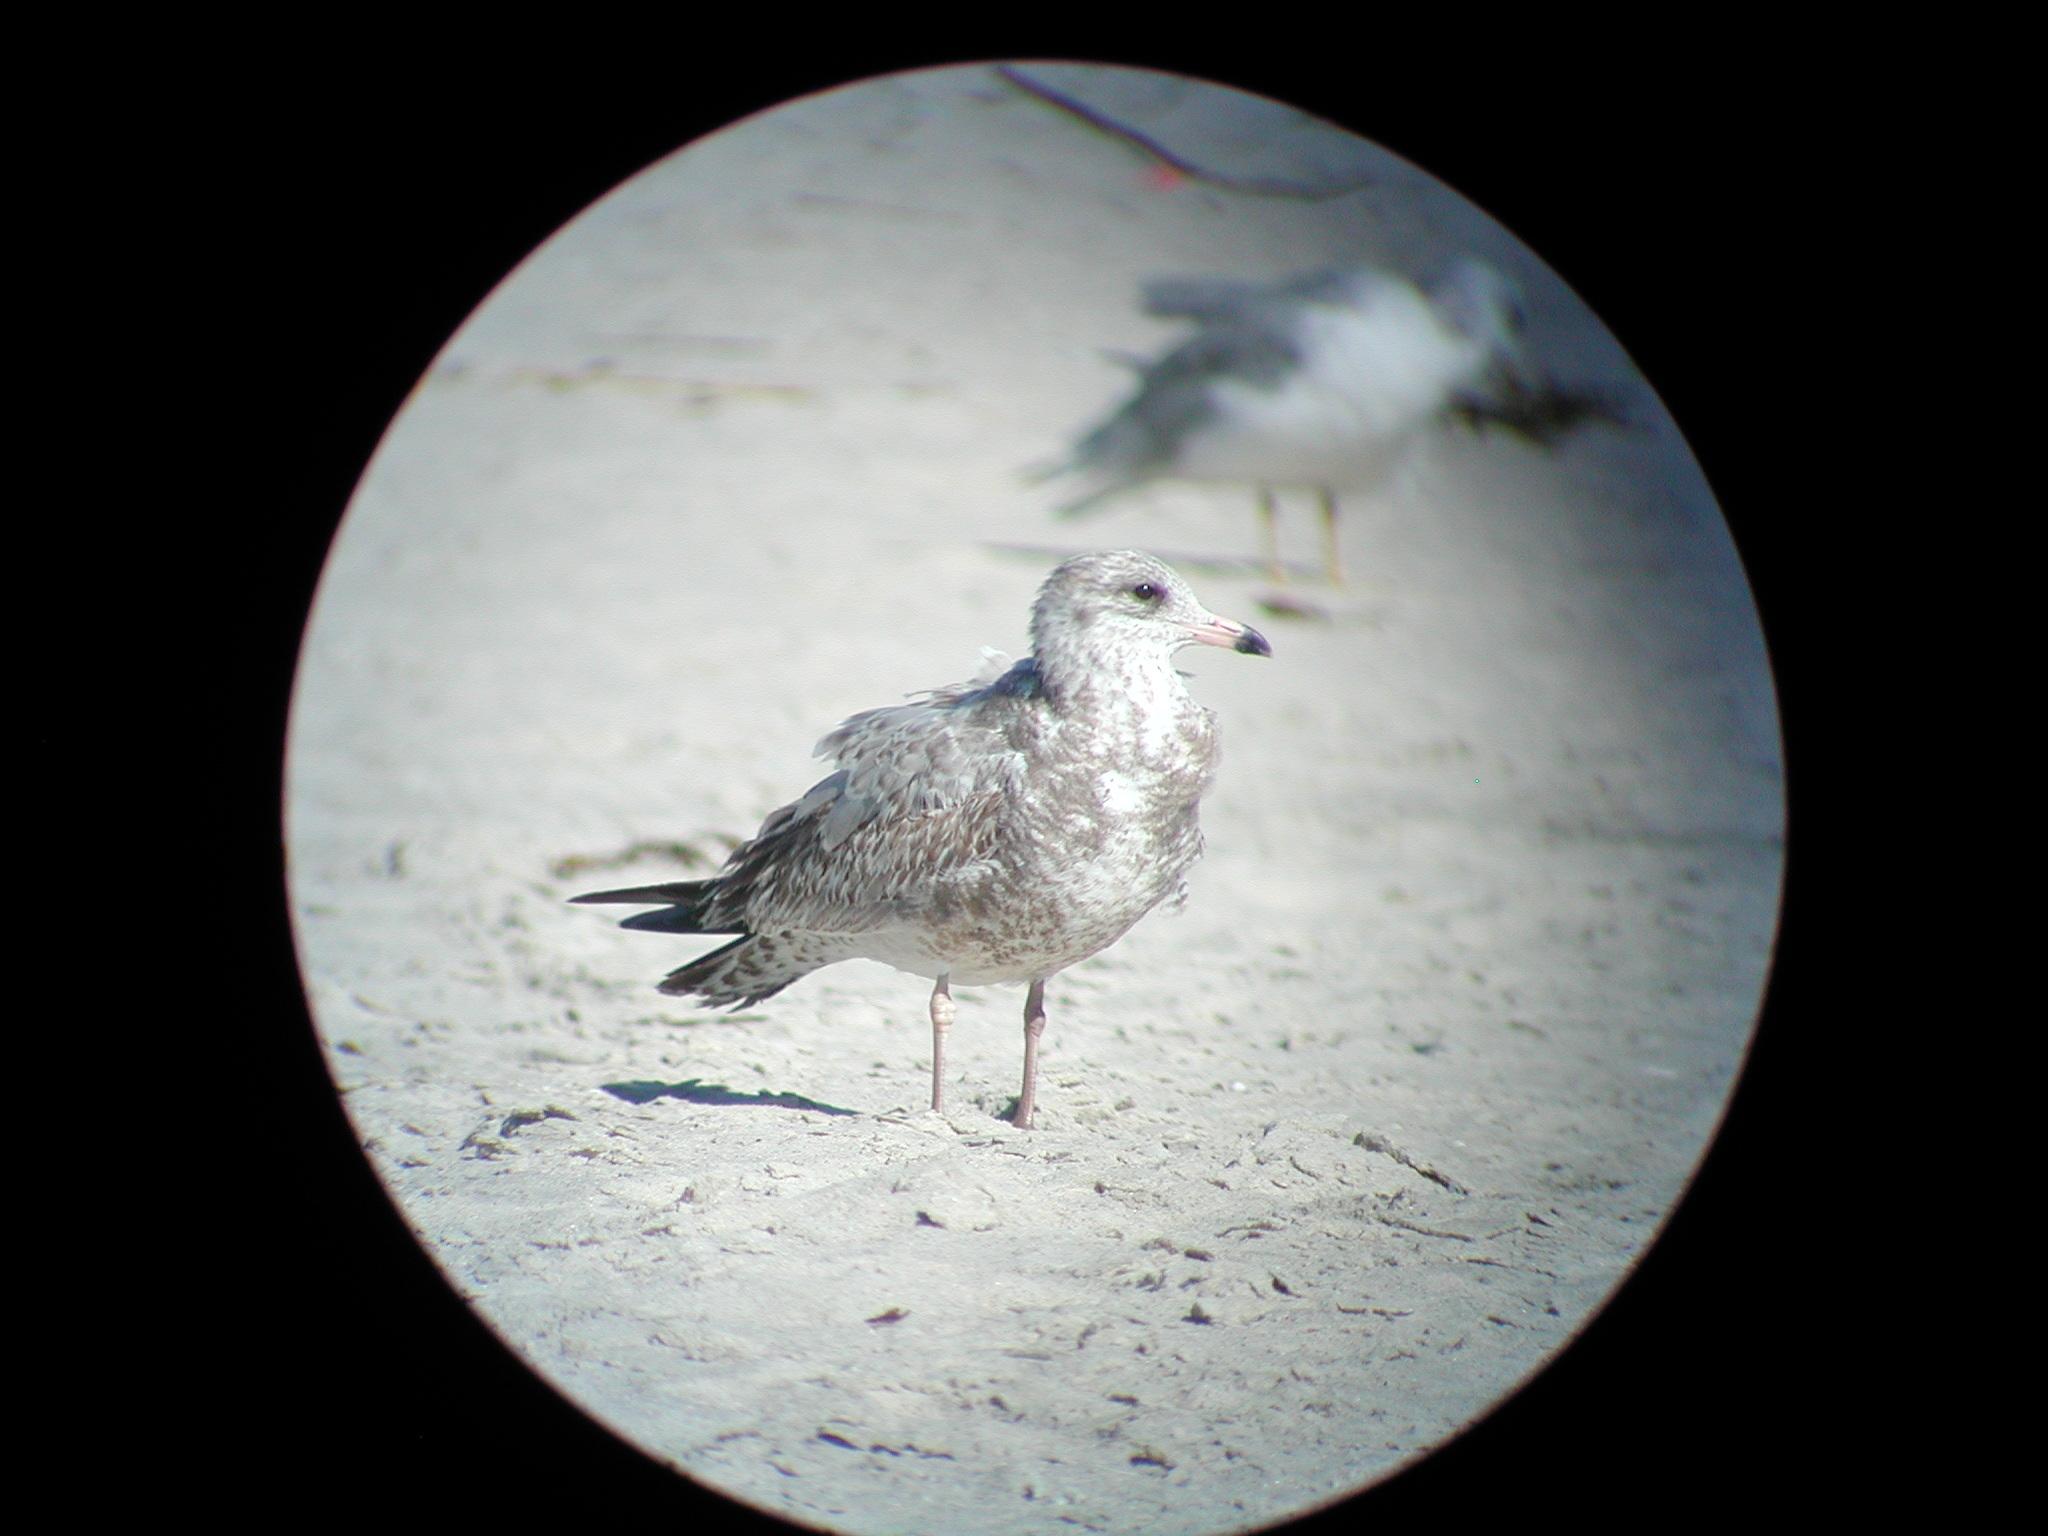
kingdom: Animalia
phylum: Chordata
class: Aves
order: Charadriiformes
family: Laridae
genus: Larus
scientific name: Larus delawarensis
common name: Ring-billed gull
